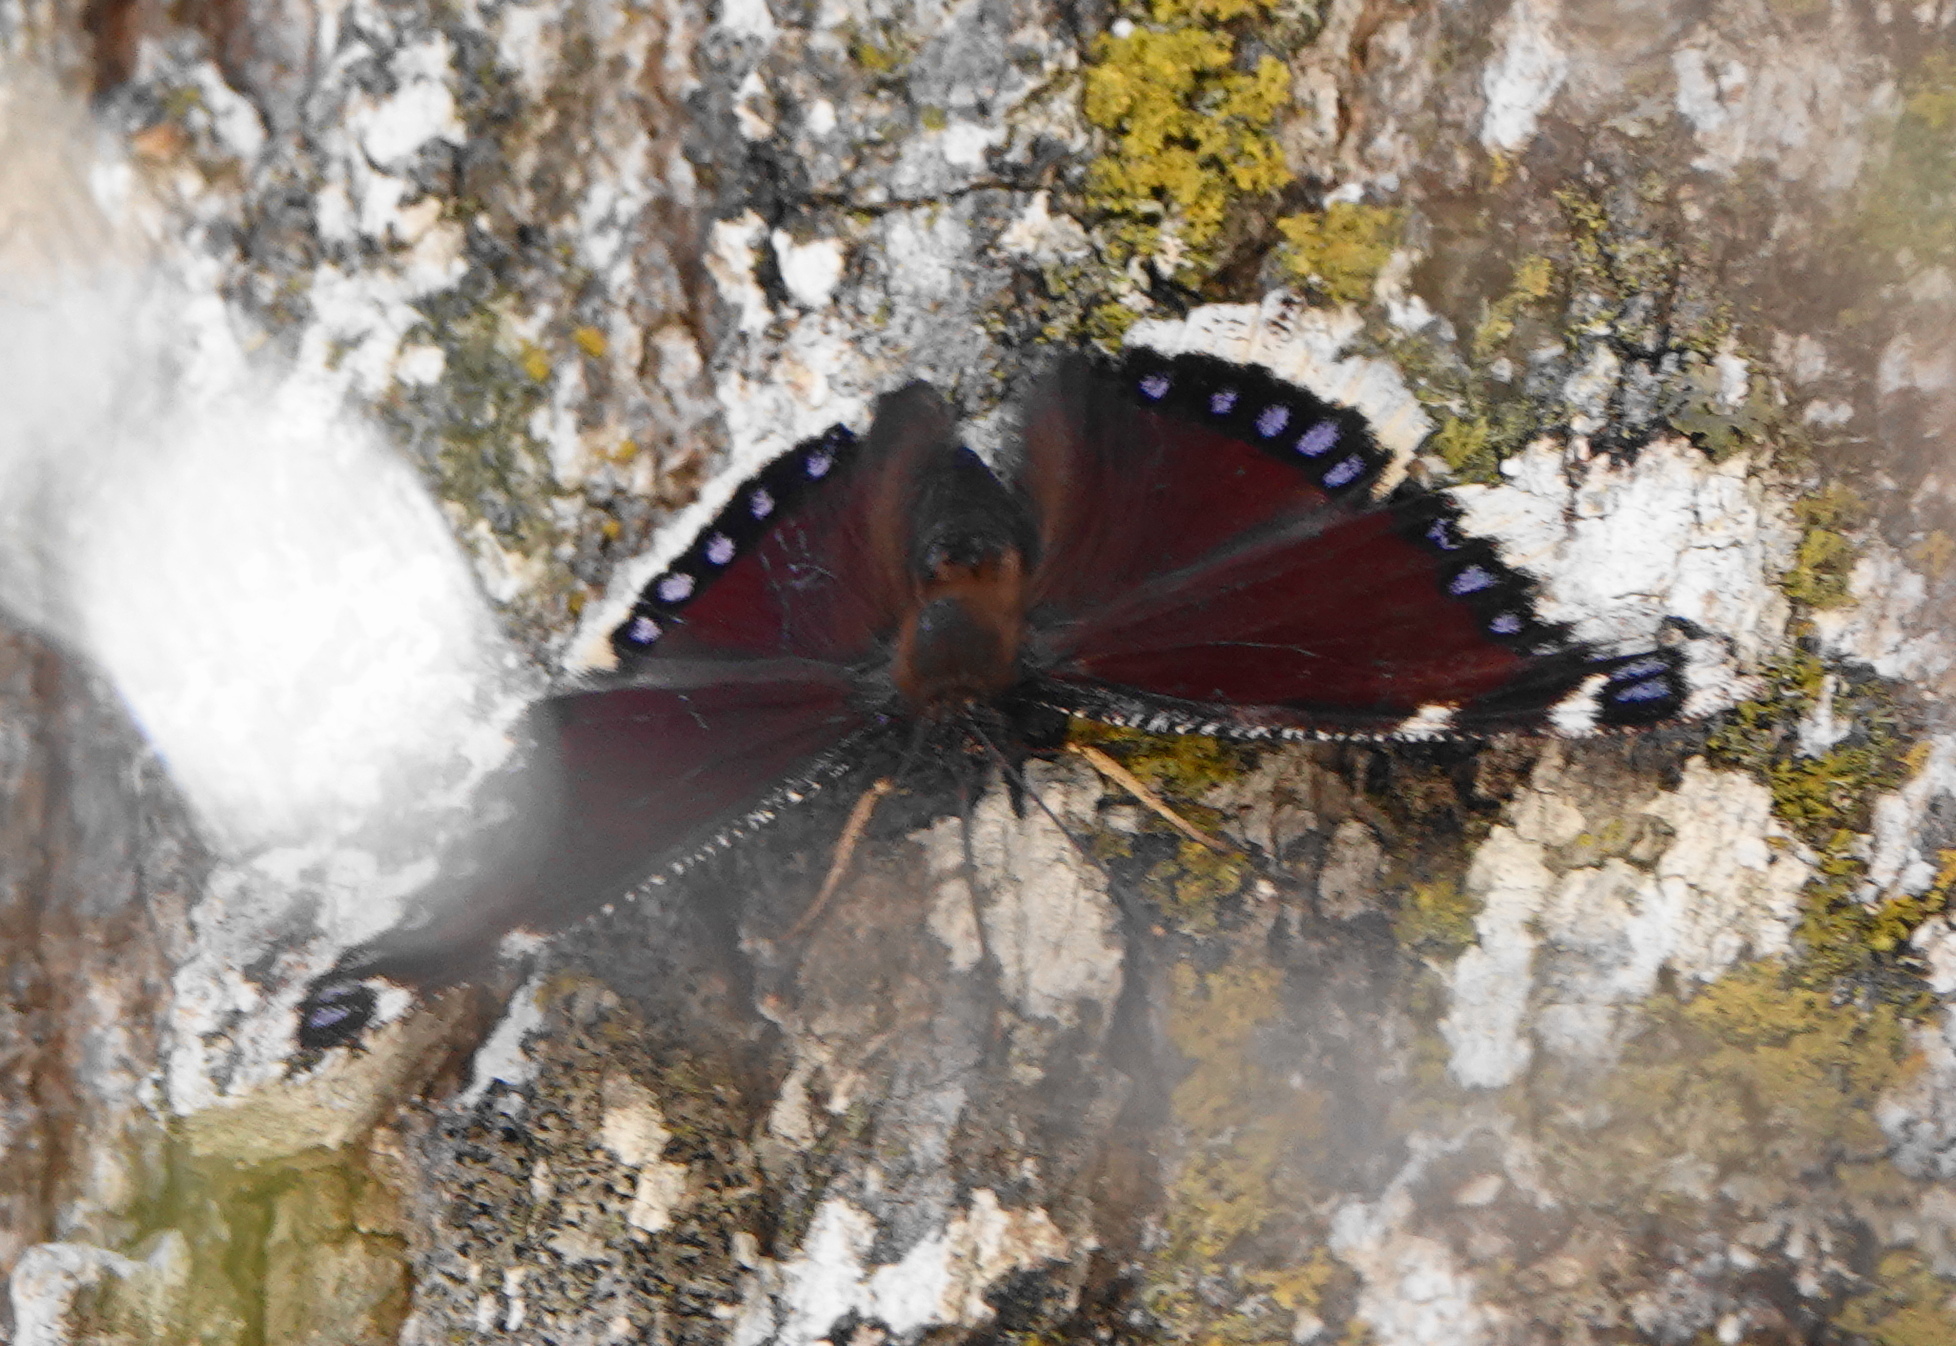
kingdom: Animalia
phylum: Arthropoda
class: Insecta
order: Lepidoptera
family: Nymphalidae
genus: Nymphalis
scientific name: Nymphalis antiopa
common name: Camberwell beauty
